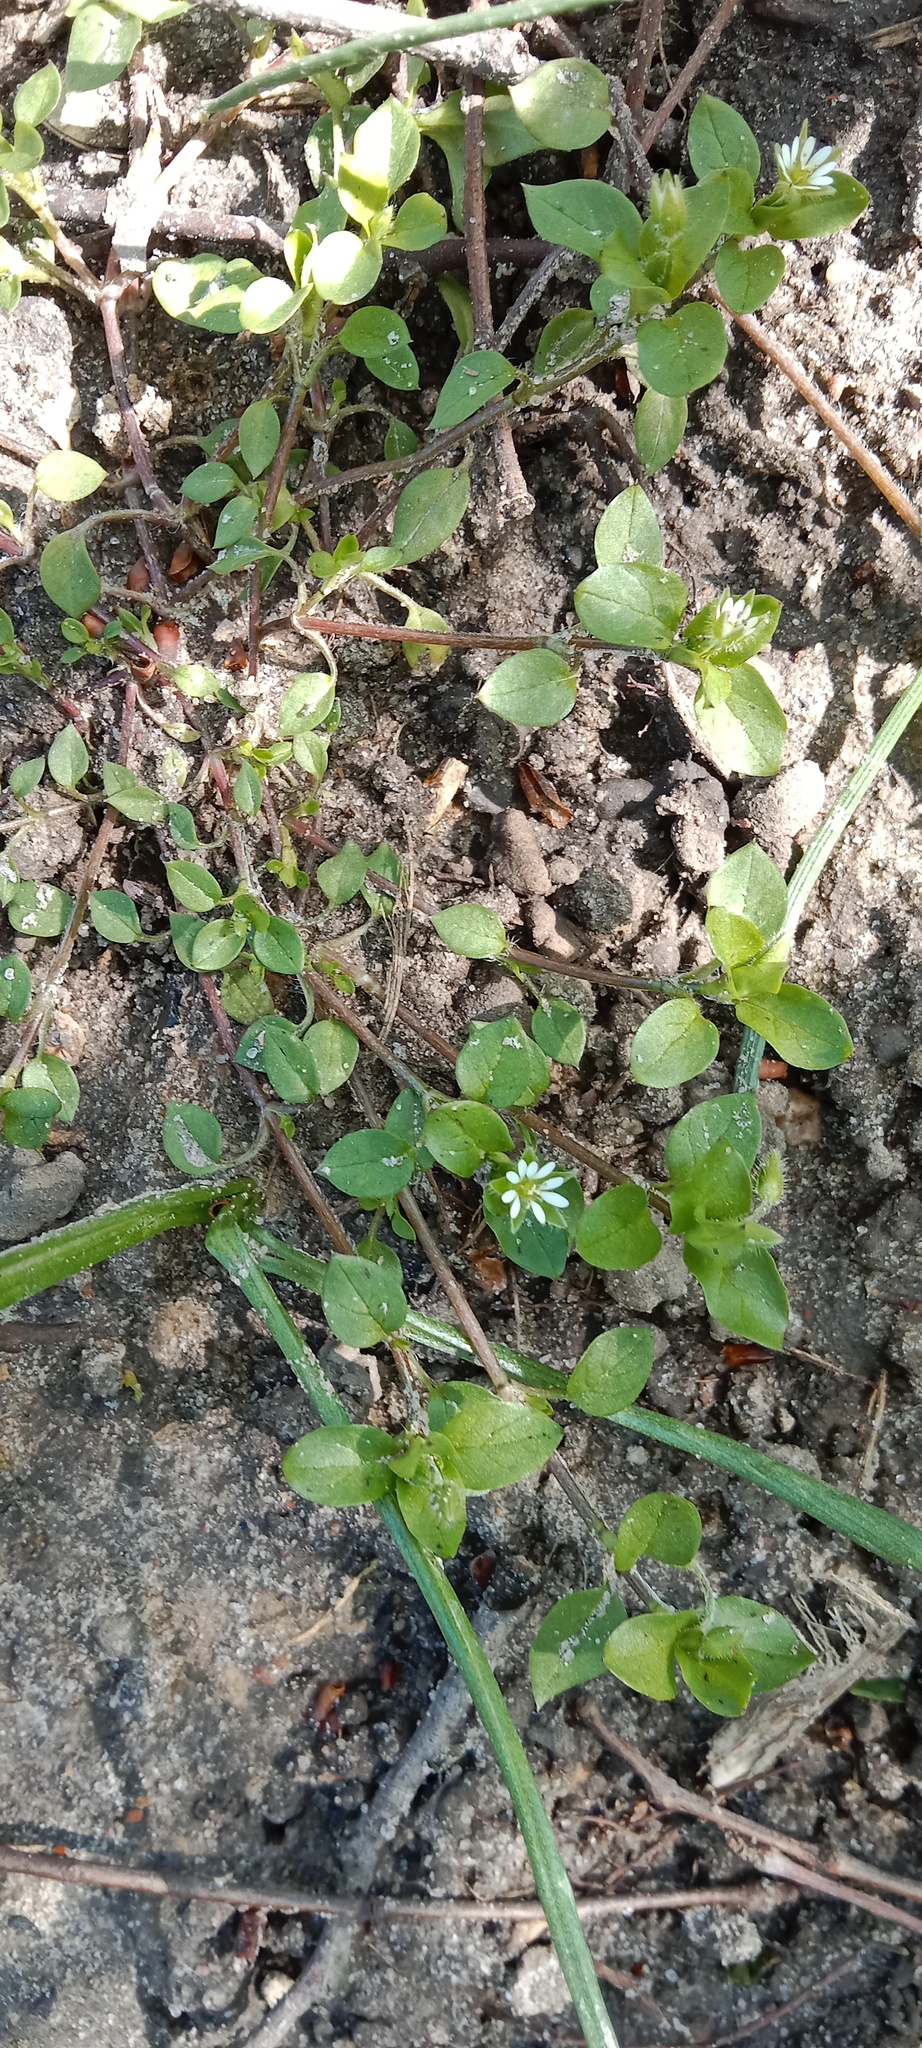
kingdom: Plantae
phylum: Tracheophyta
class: Magnoliopsida
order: Caryophyllales
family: Caryophyllaceae
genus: Stellaria
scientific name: Stellaria media
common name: Common chickweed
